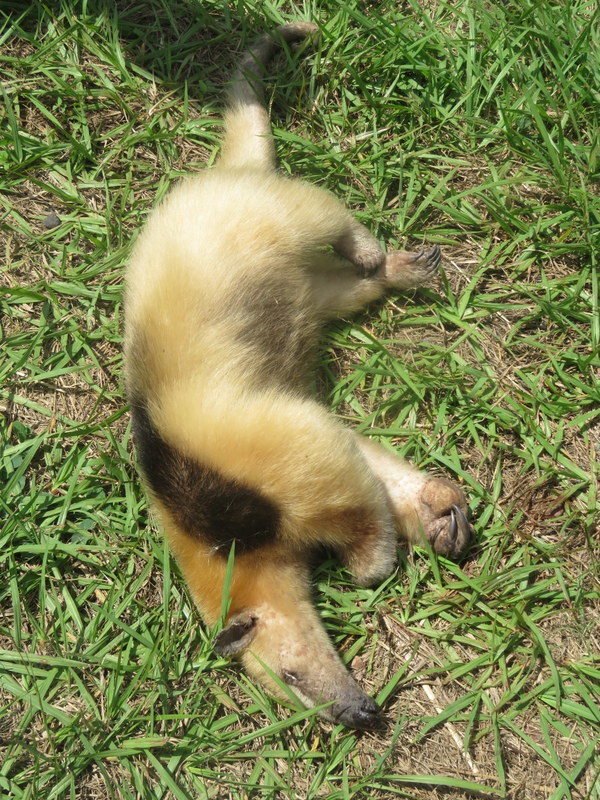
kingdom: Animalia
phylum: Chordata
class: Mammalia
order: Pilosa
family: Myrmecophagidae
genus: Tamandua
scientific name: Tamandua tetradactyla
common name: Southern tamandua
